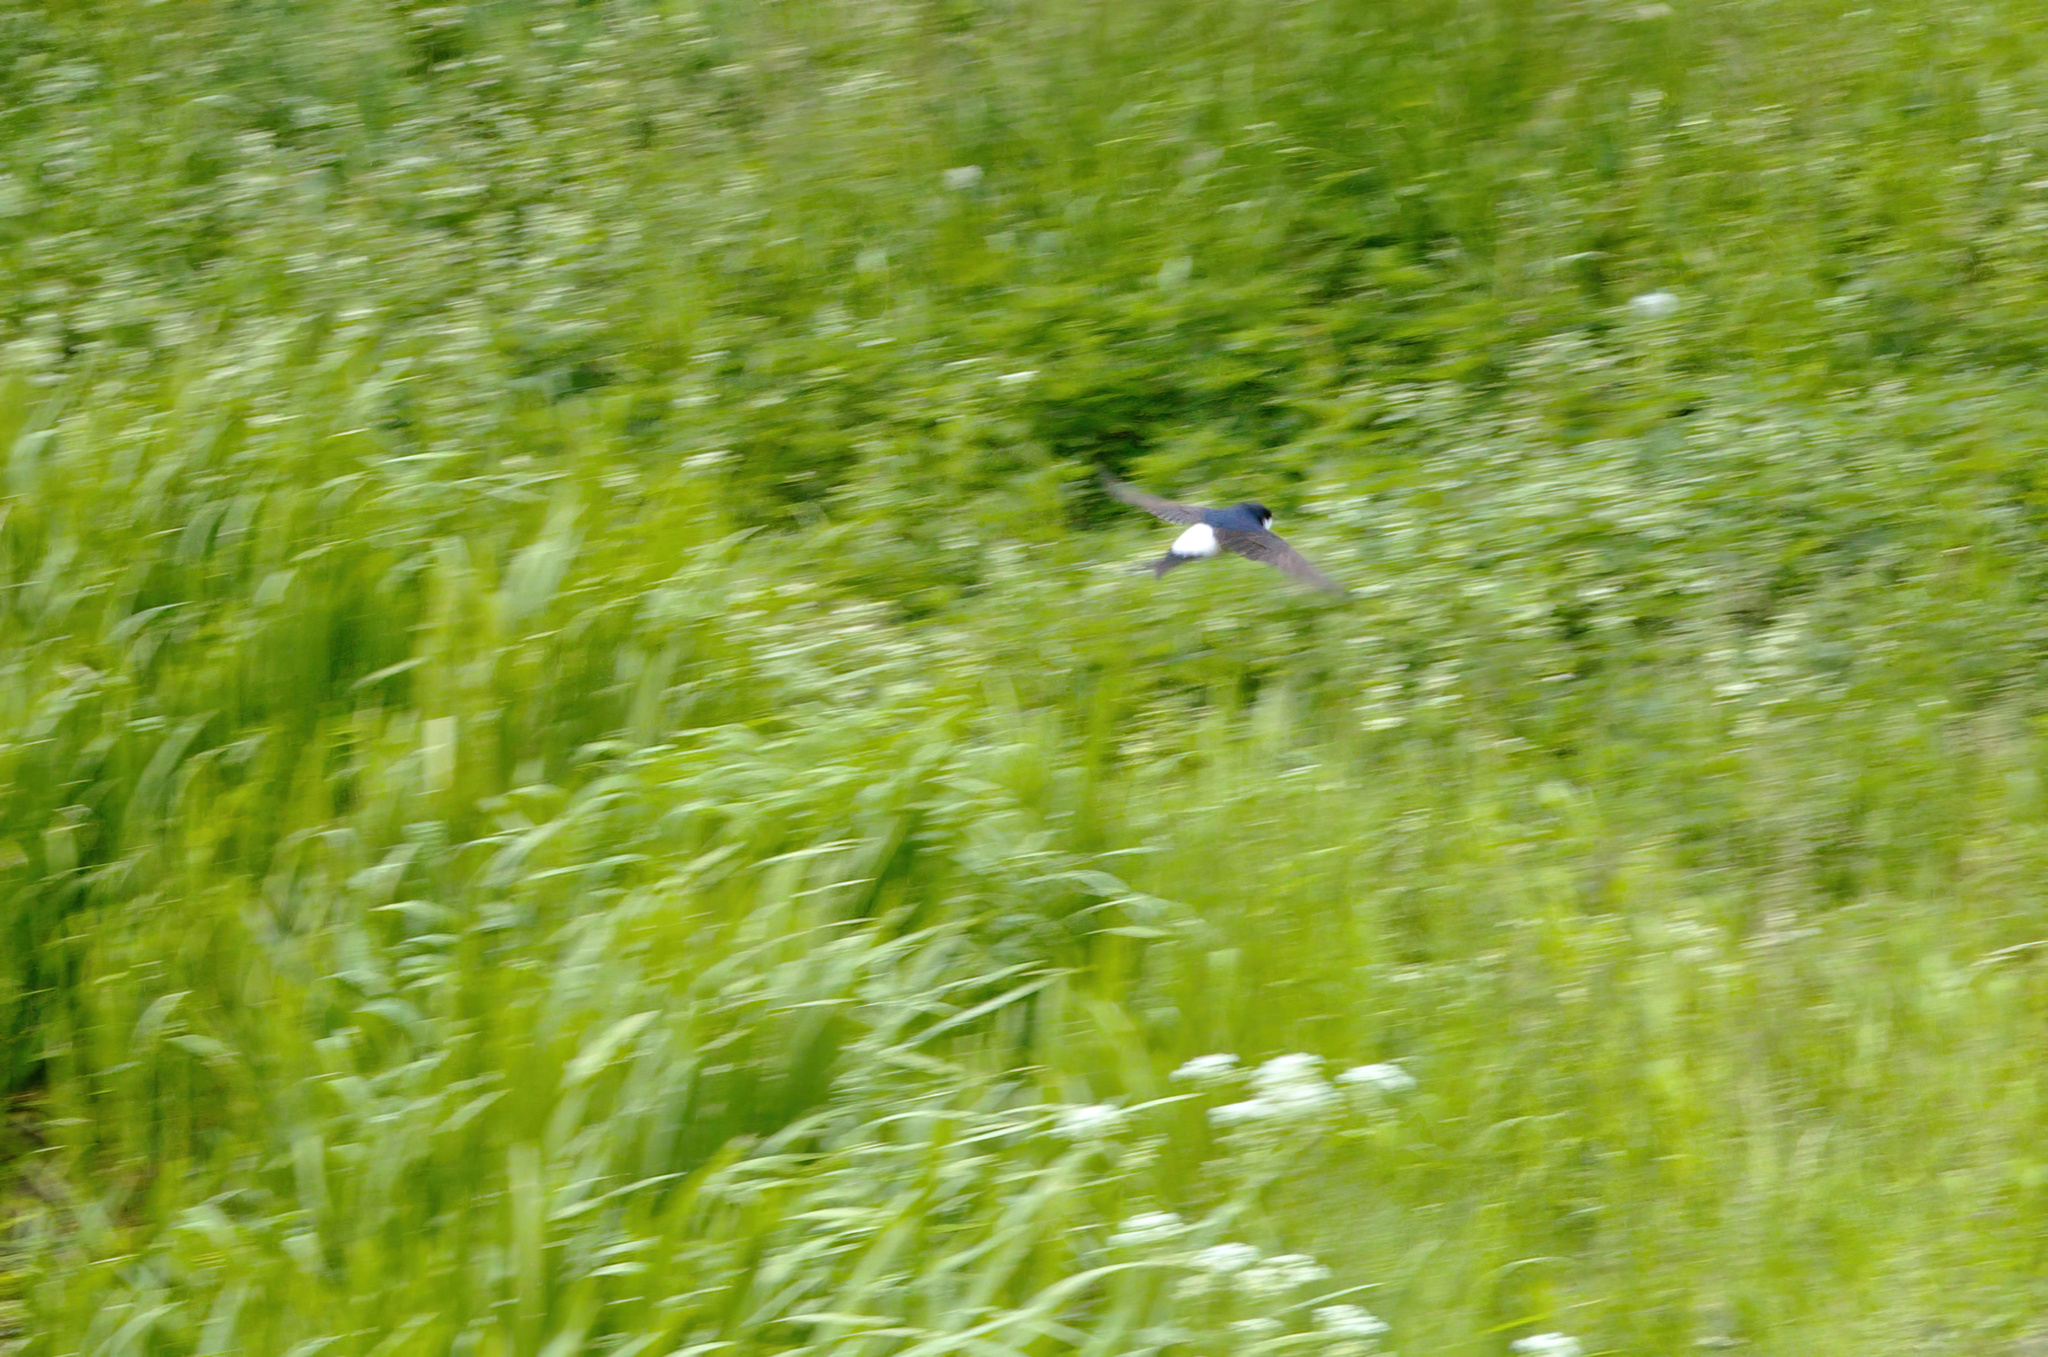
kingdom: Animalia
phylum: Chordata
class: Aves
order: Passeriformes
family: Hirundinidae
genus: Delichon
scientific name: Delichon urbicum
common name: Common house martin
